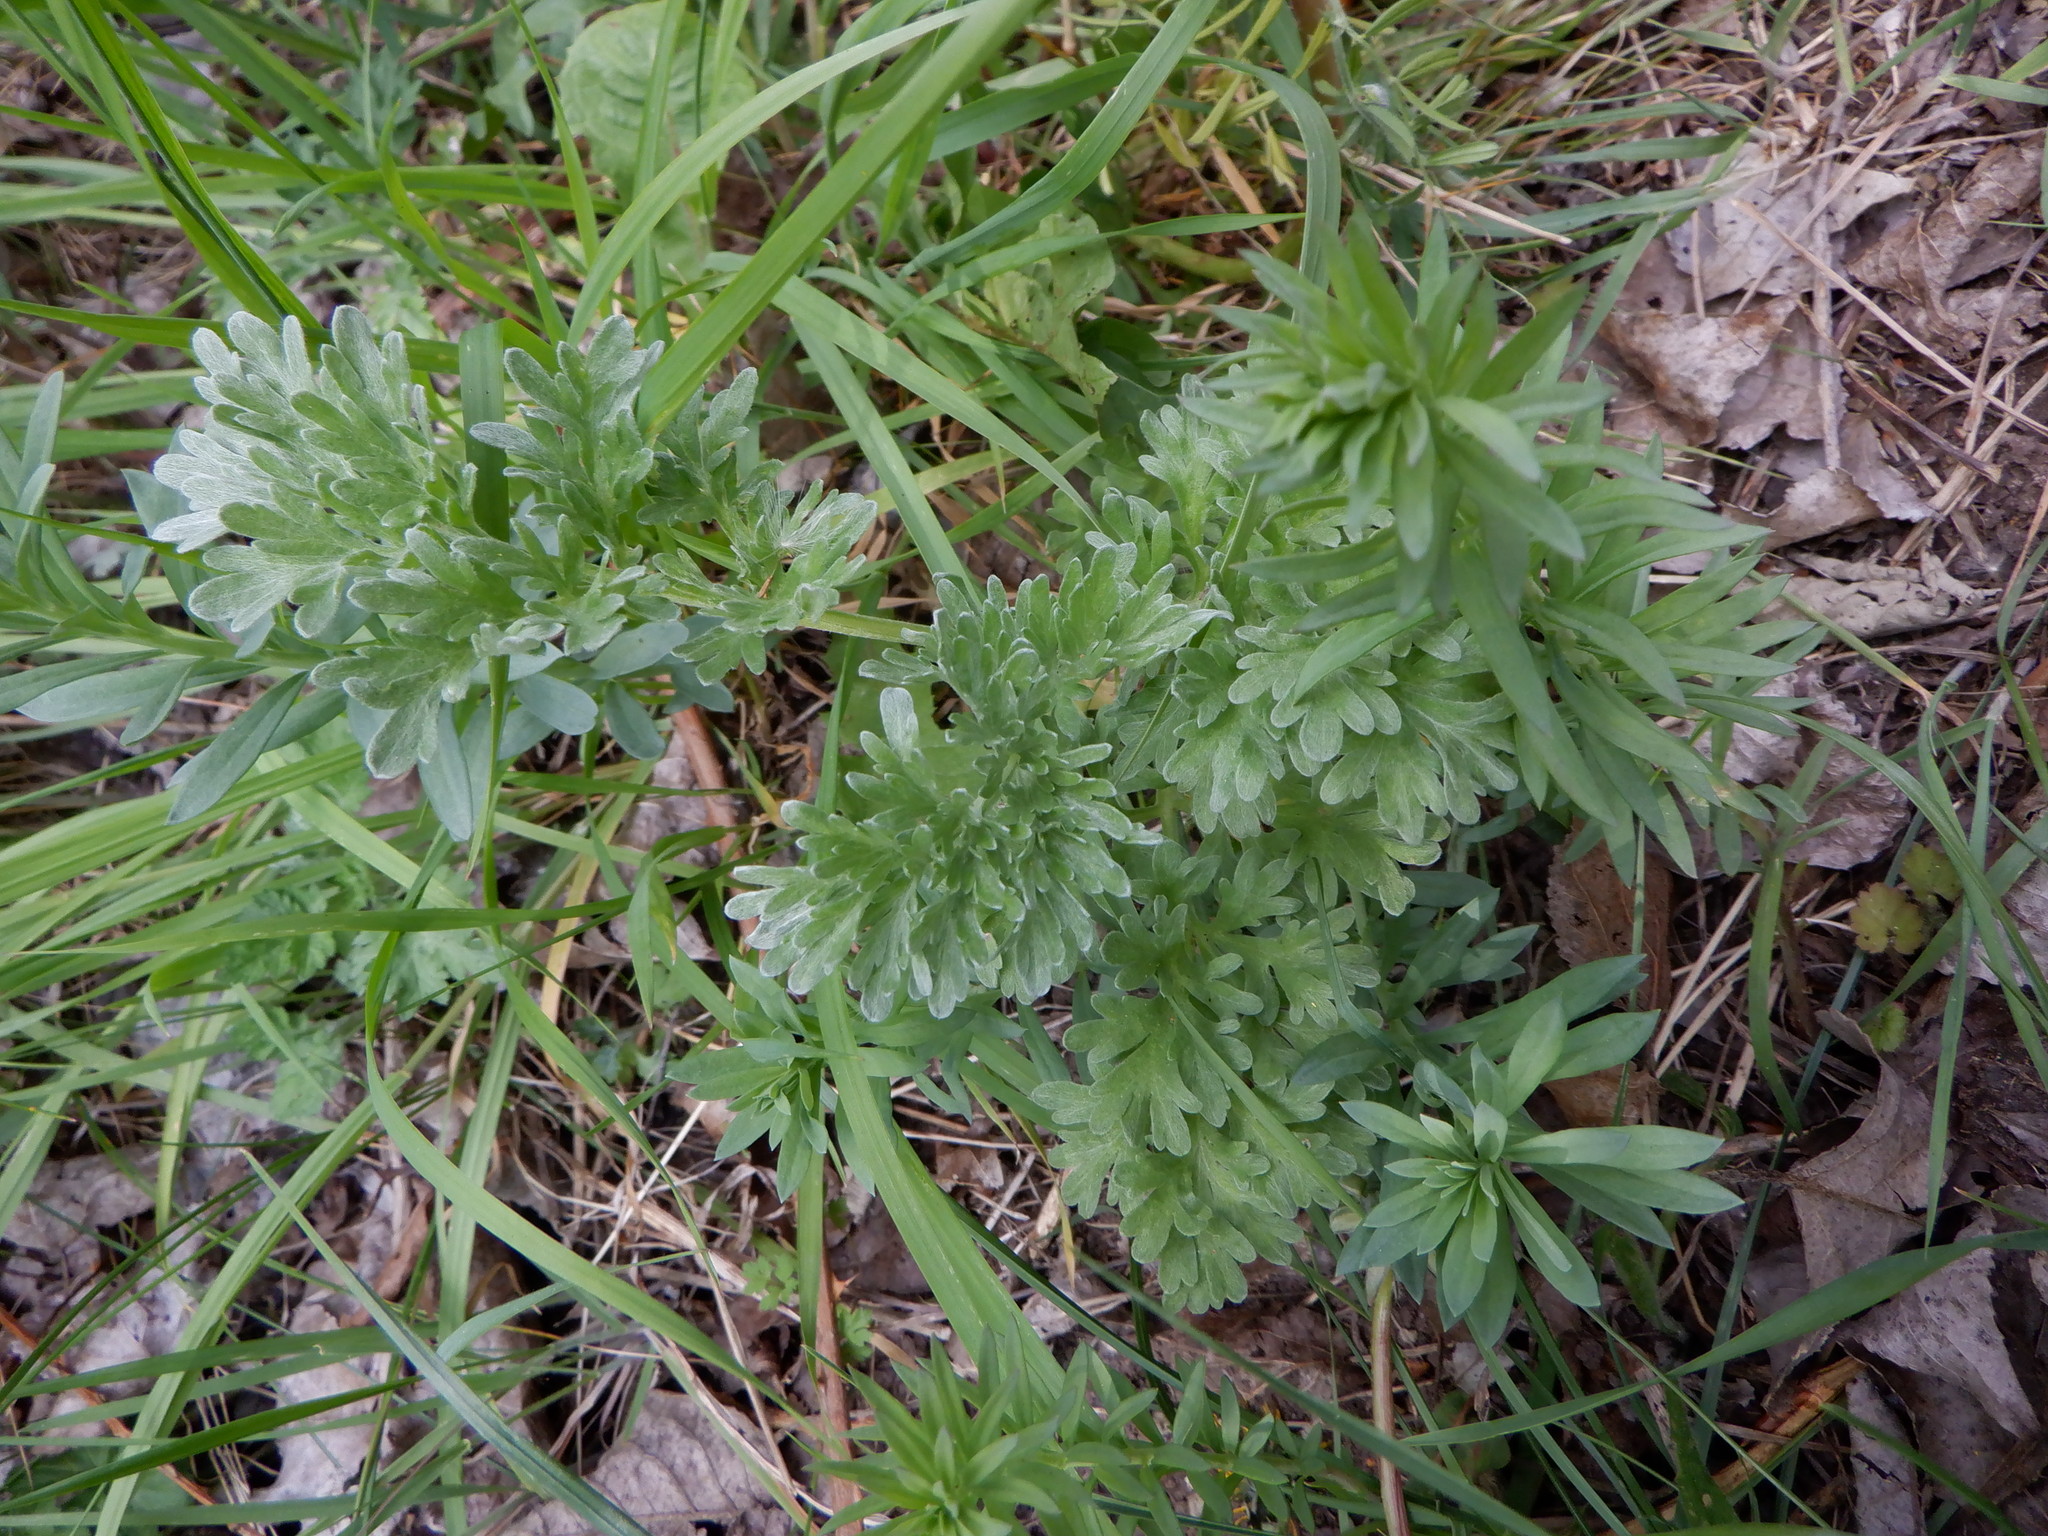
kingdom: Plantae
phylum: Tracheophyta
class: Magnoliopsida
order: Asterales
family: Asteraceae
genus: Artemisia
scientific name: Artemisia absinthium
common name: Wormwood
